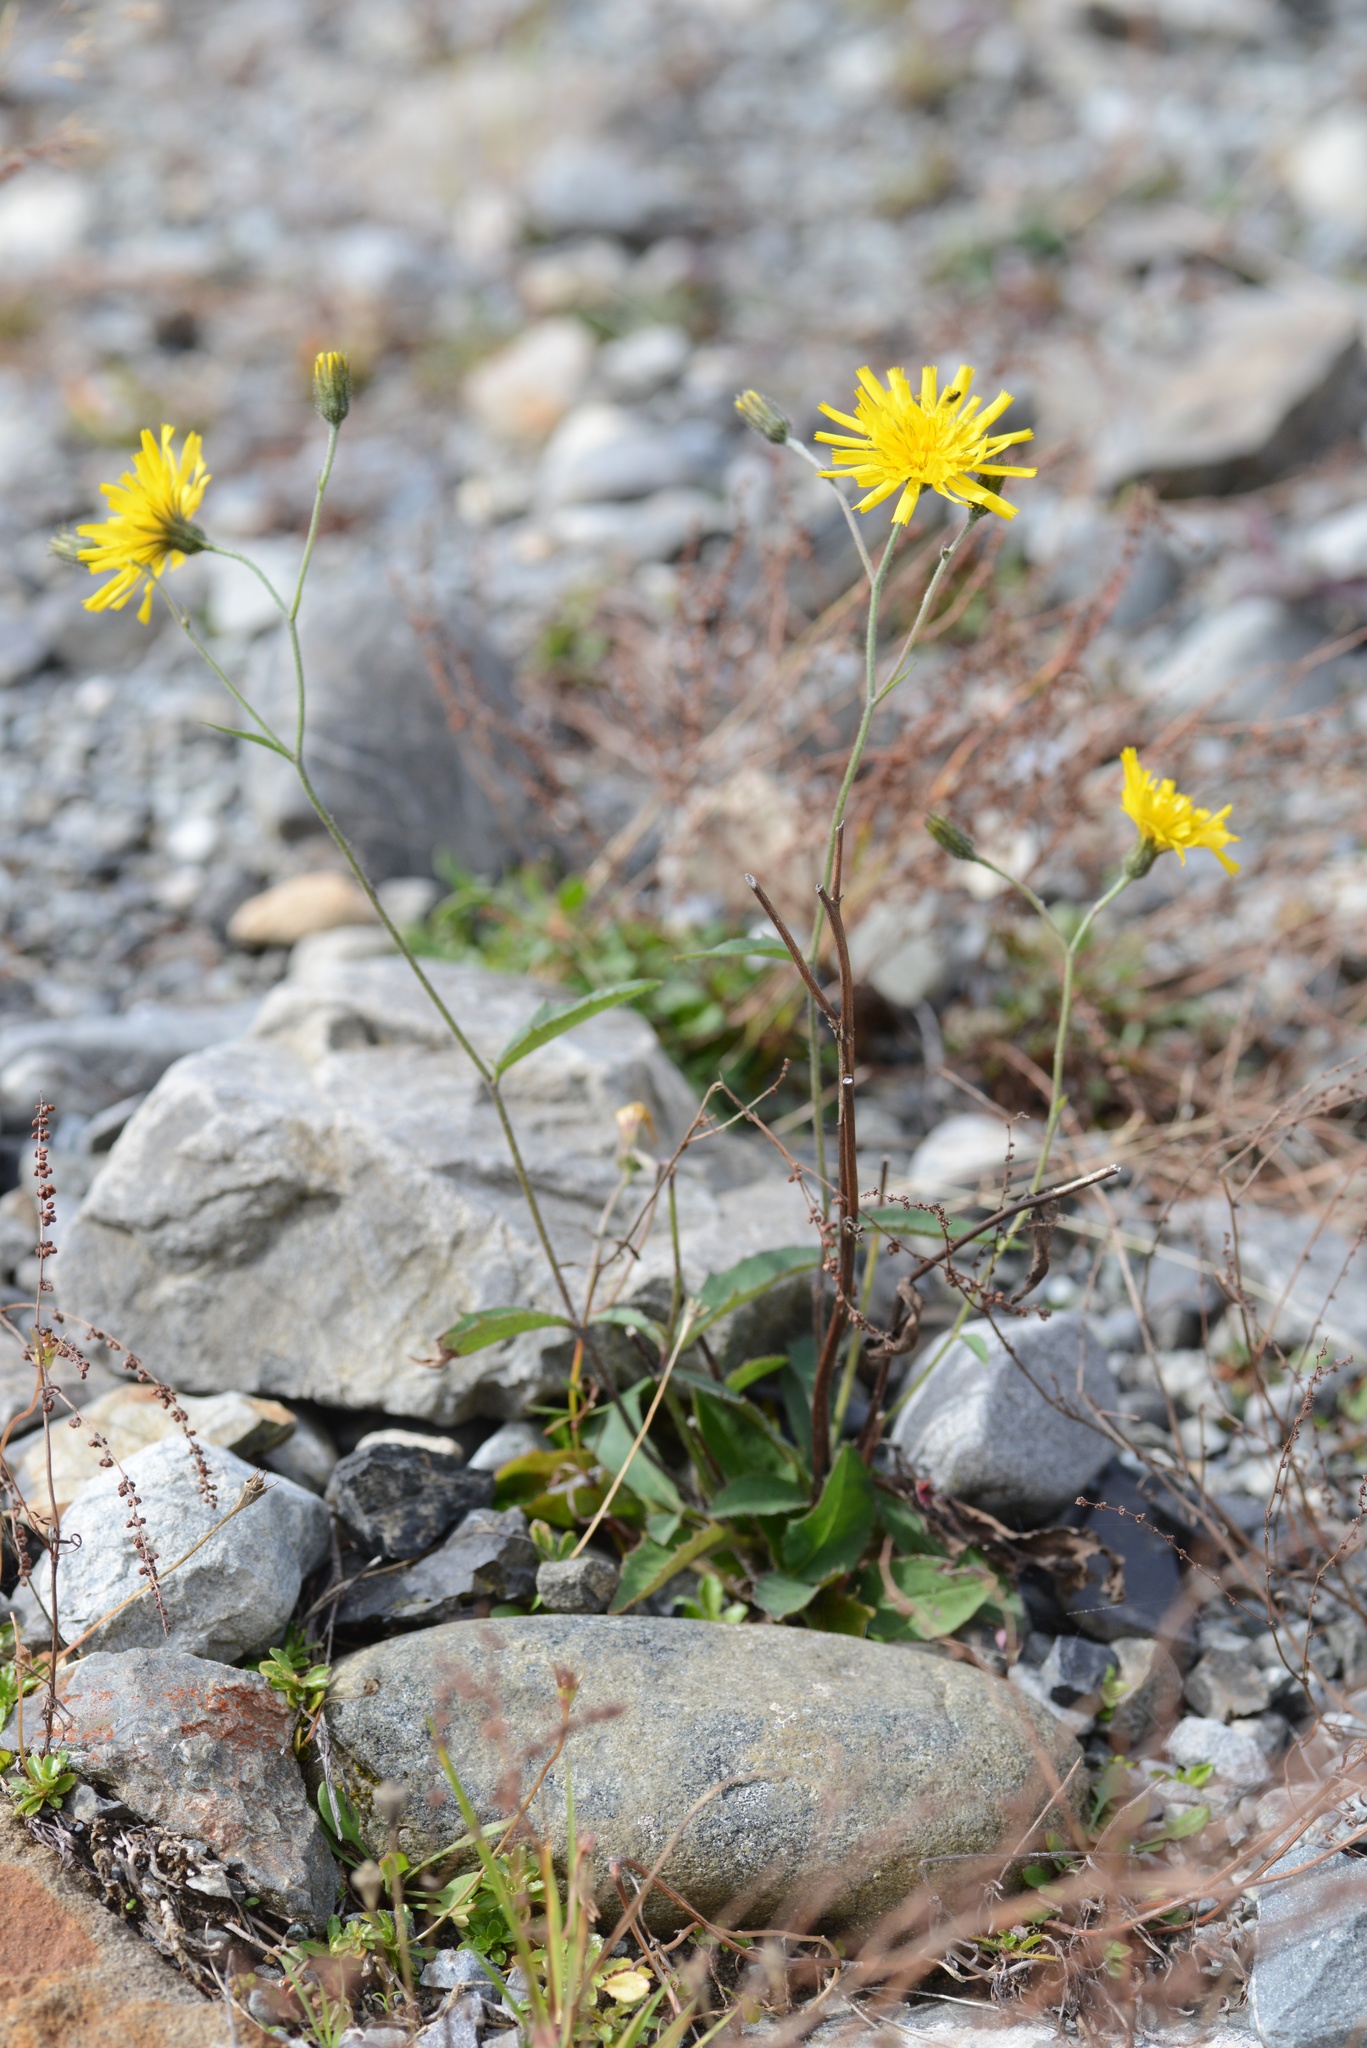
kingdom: Plantae
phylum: Tracheophyta
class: Magnoliopsida
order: Asterales
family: Asteraceae
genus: Hieracium
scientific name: Hieracium lepidulum
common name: Irregular-toothed hawkweed
